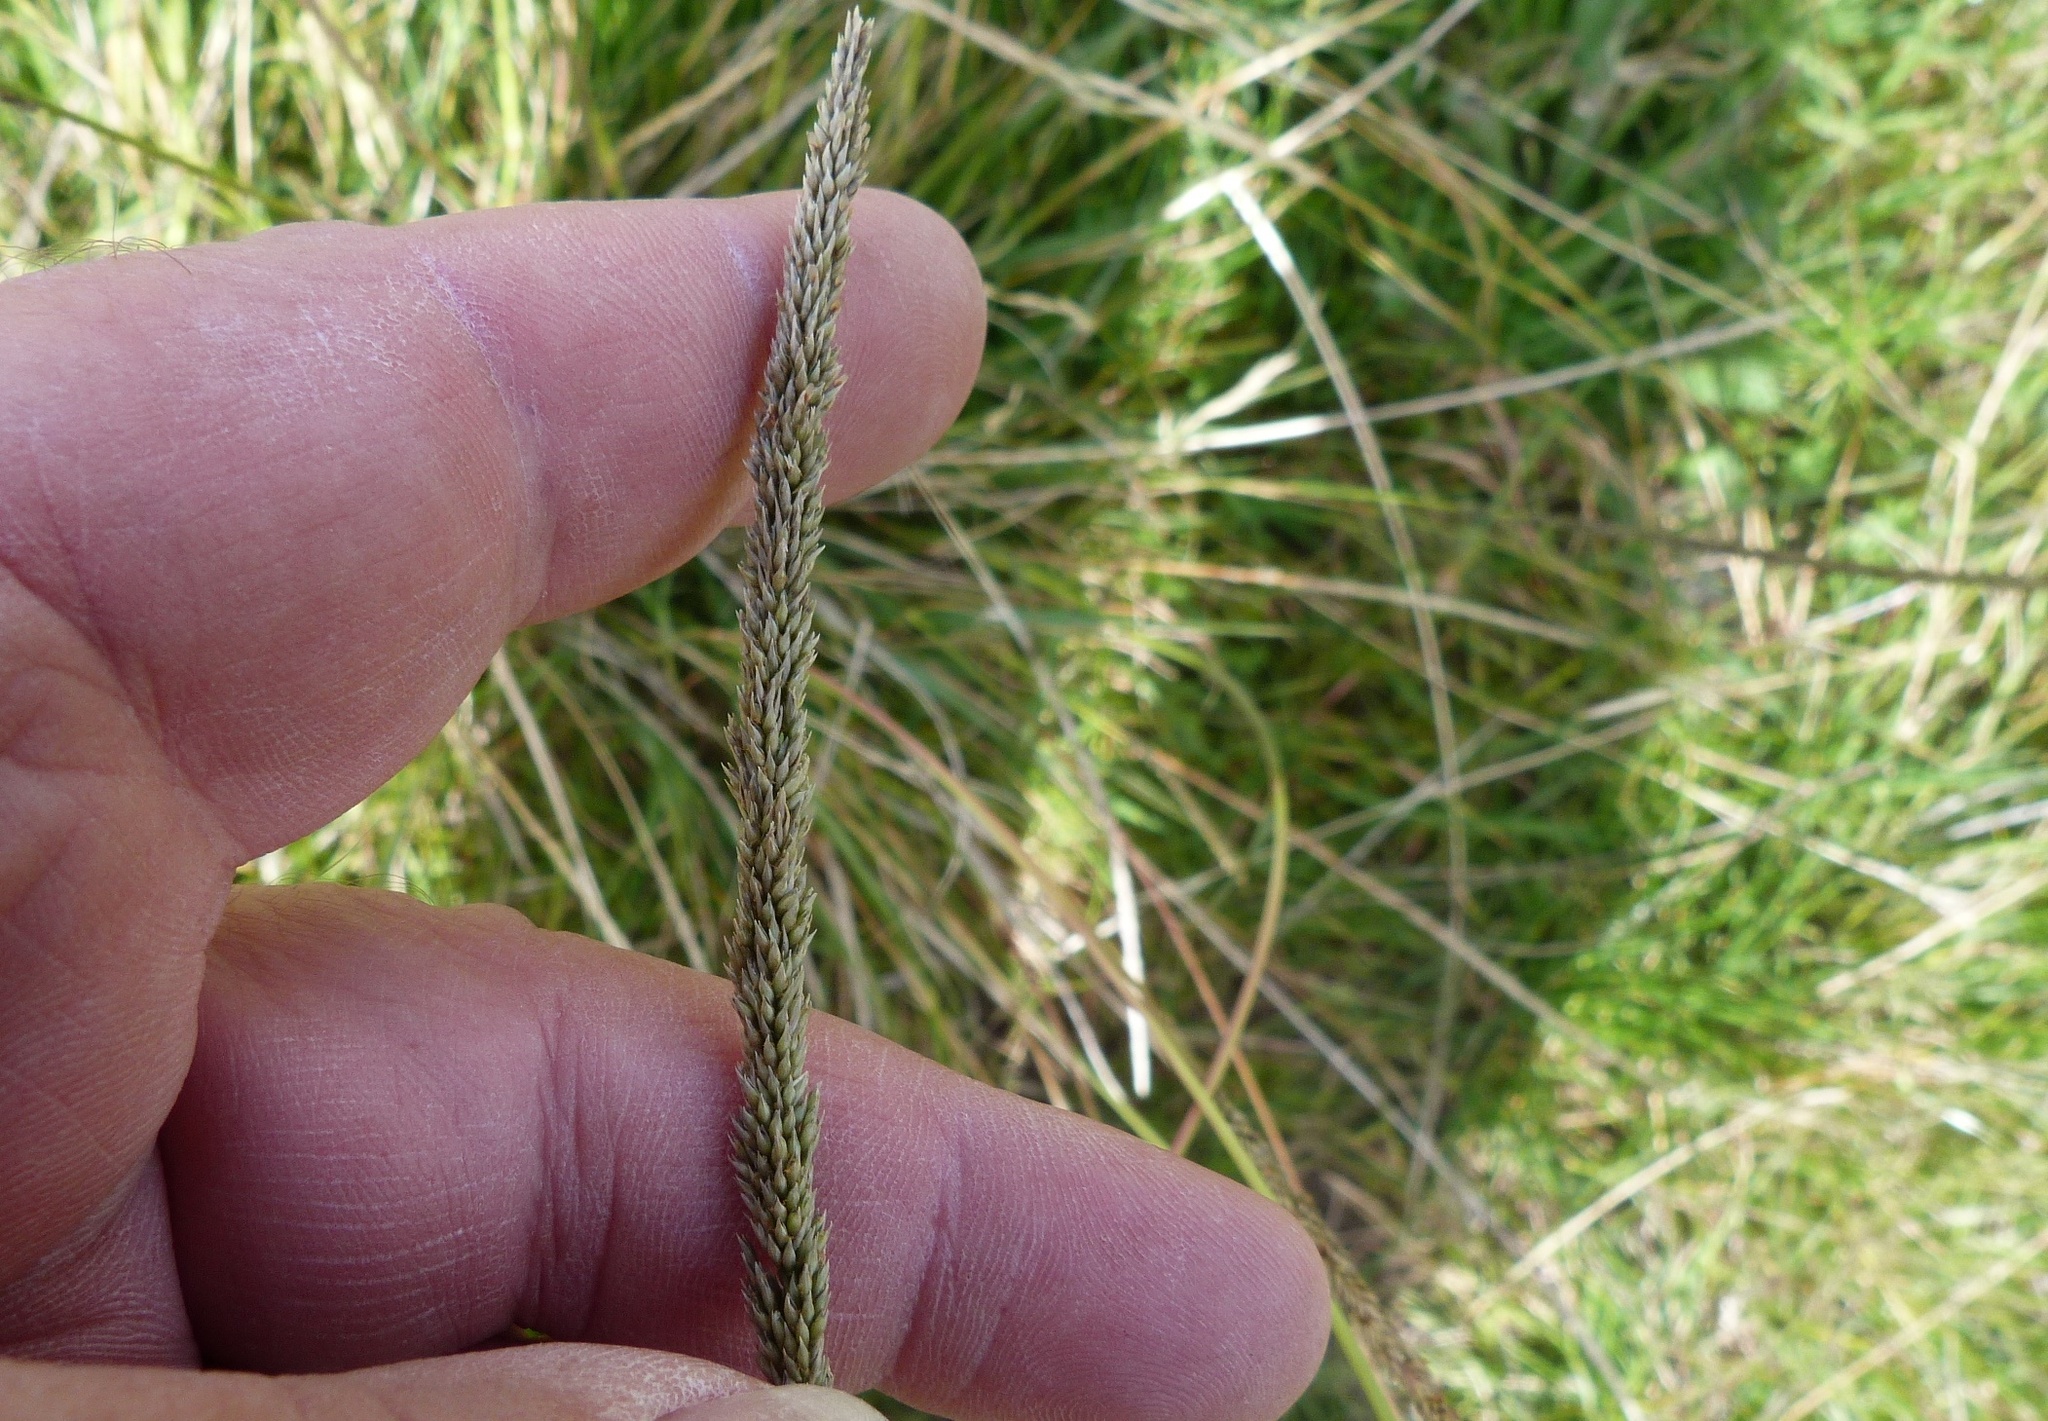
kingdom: Plantae
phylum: Tracheophyta
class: Liliopsida
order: Poales
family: Poaceae
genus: Sporobolus
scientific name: Sporobolus africanus
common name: African dropseed
